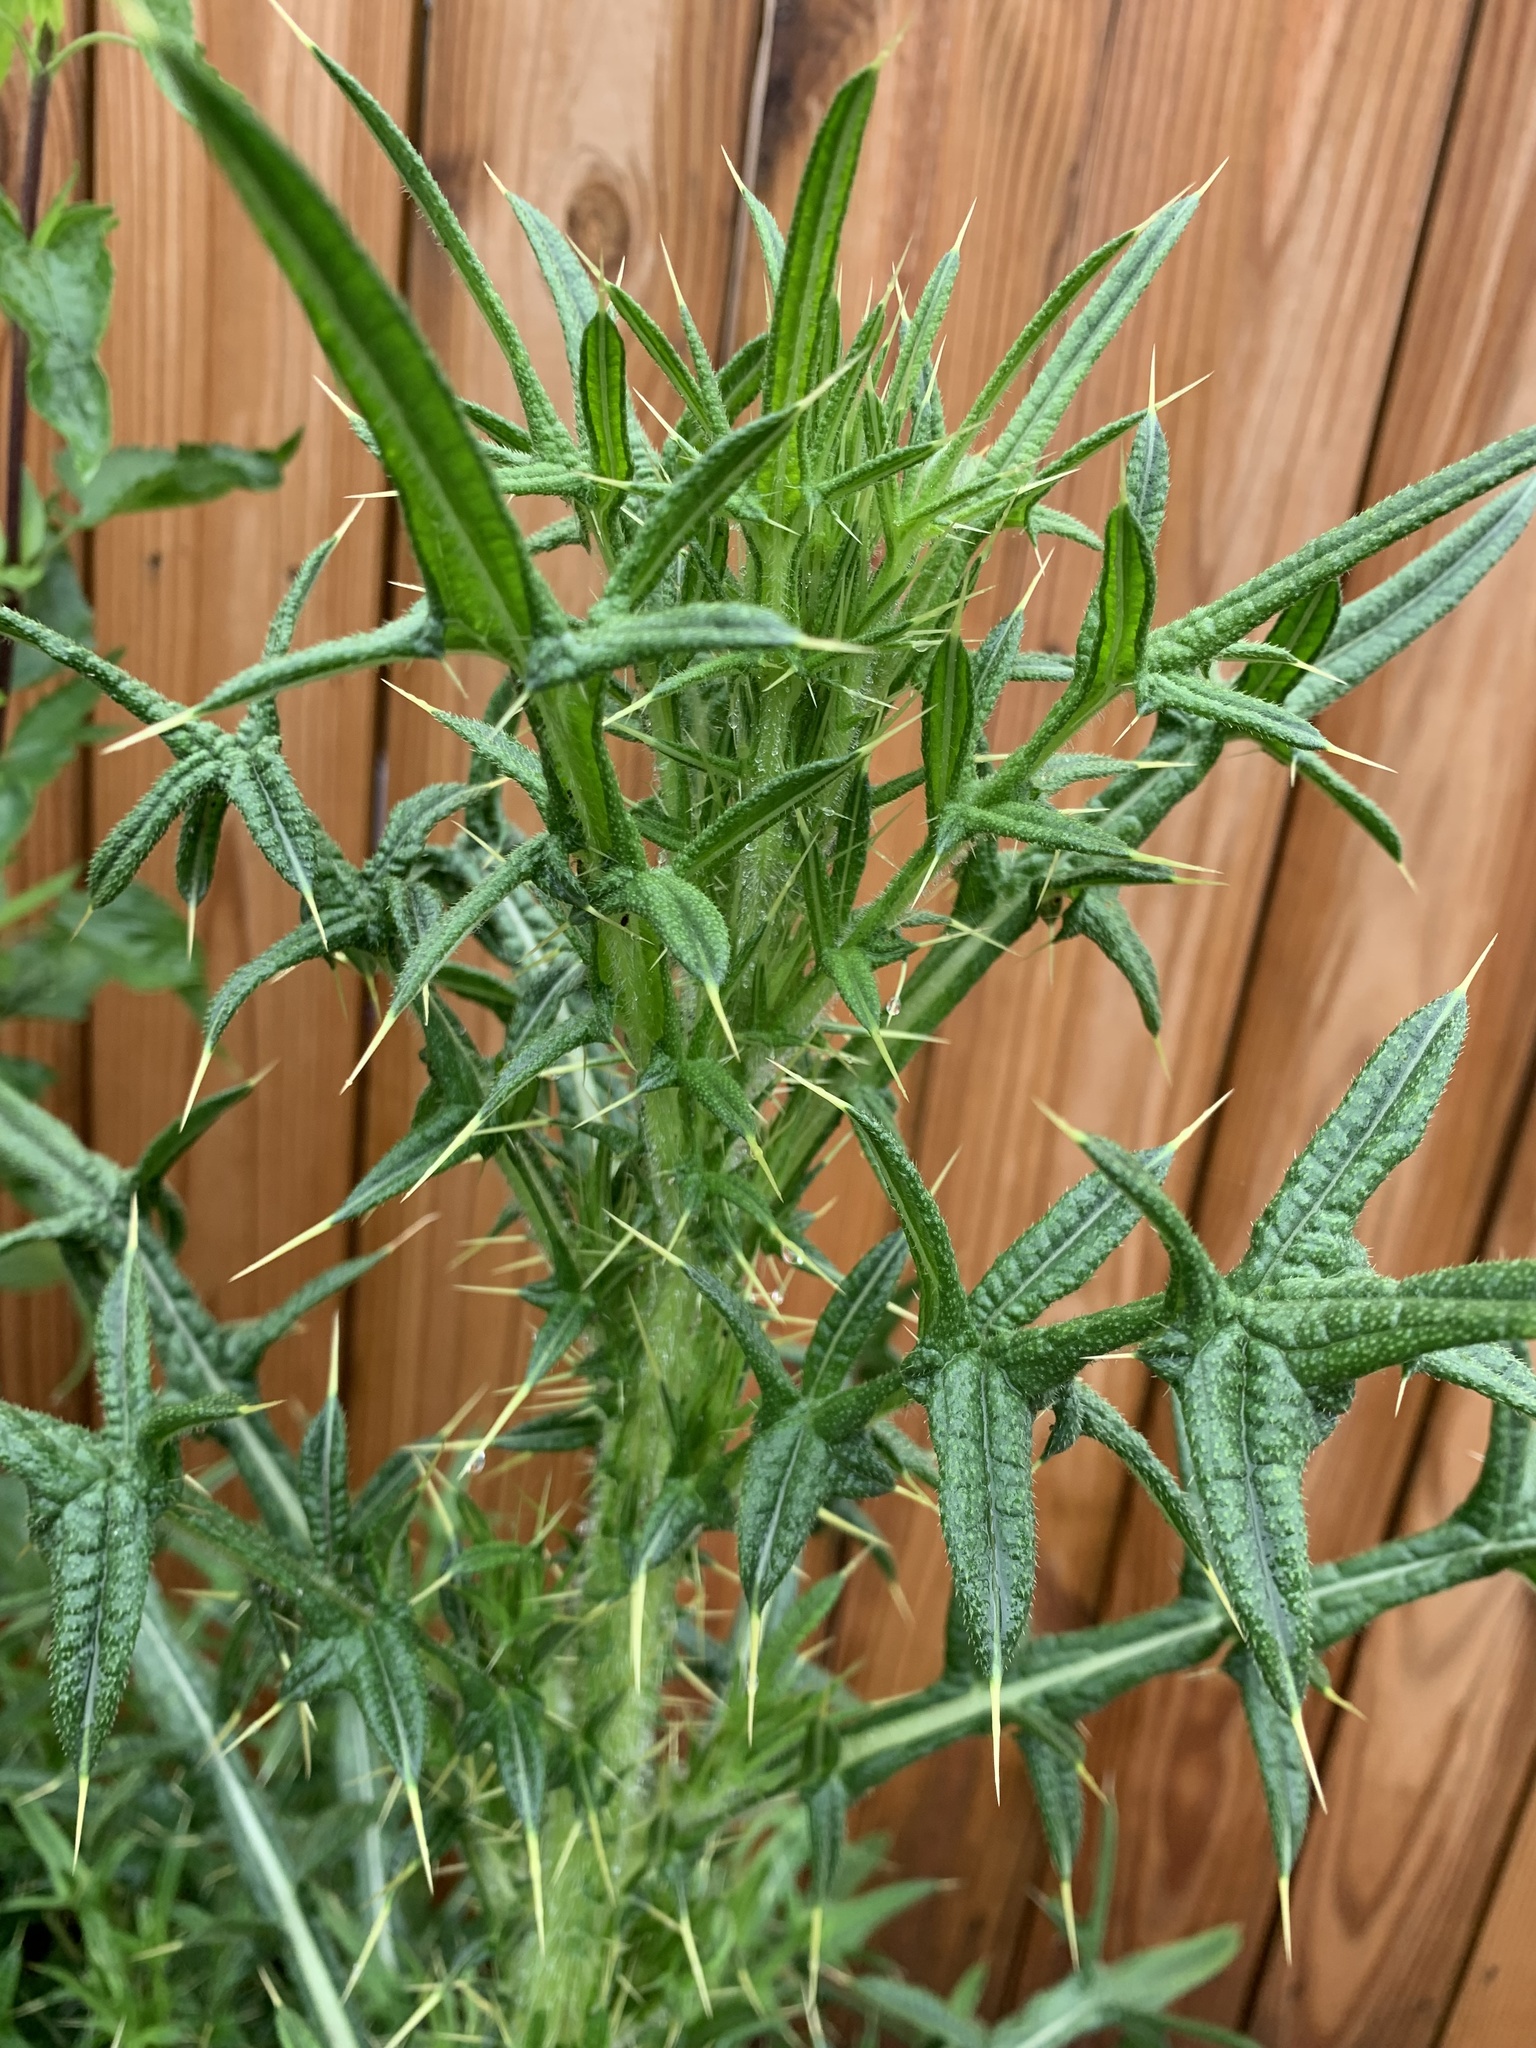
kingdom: Plantae
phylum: Tracheophyta
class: Magnoliopsida
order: Asterales
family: Asteraceae
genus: Cirsium
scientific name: Cirsium vulgare
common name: Bull thistle
